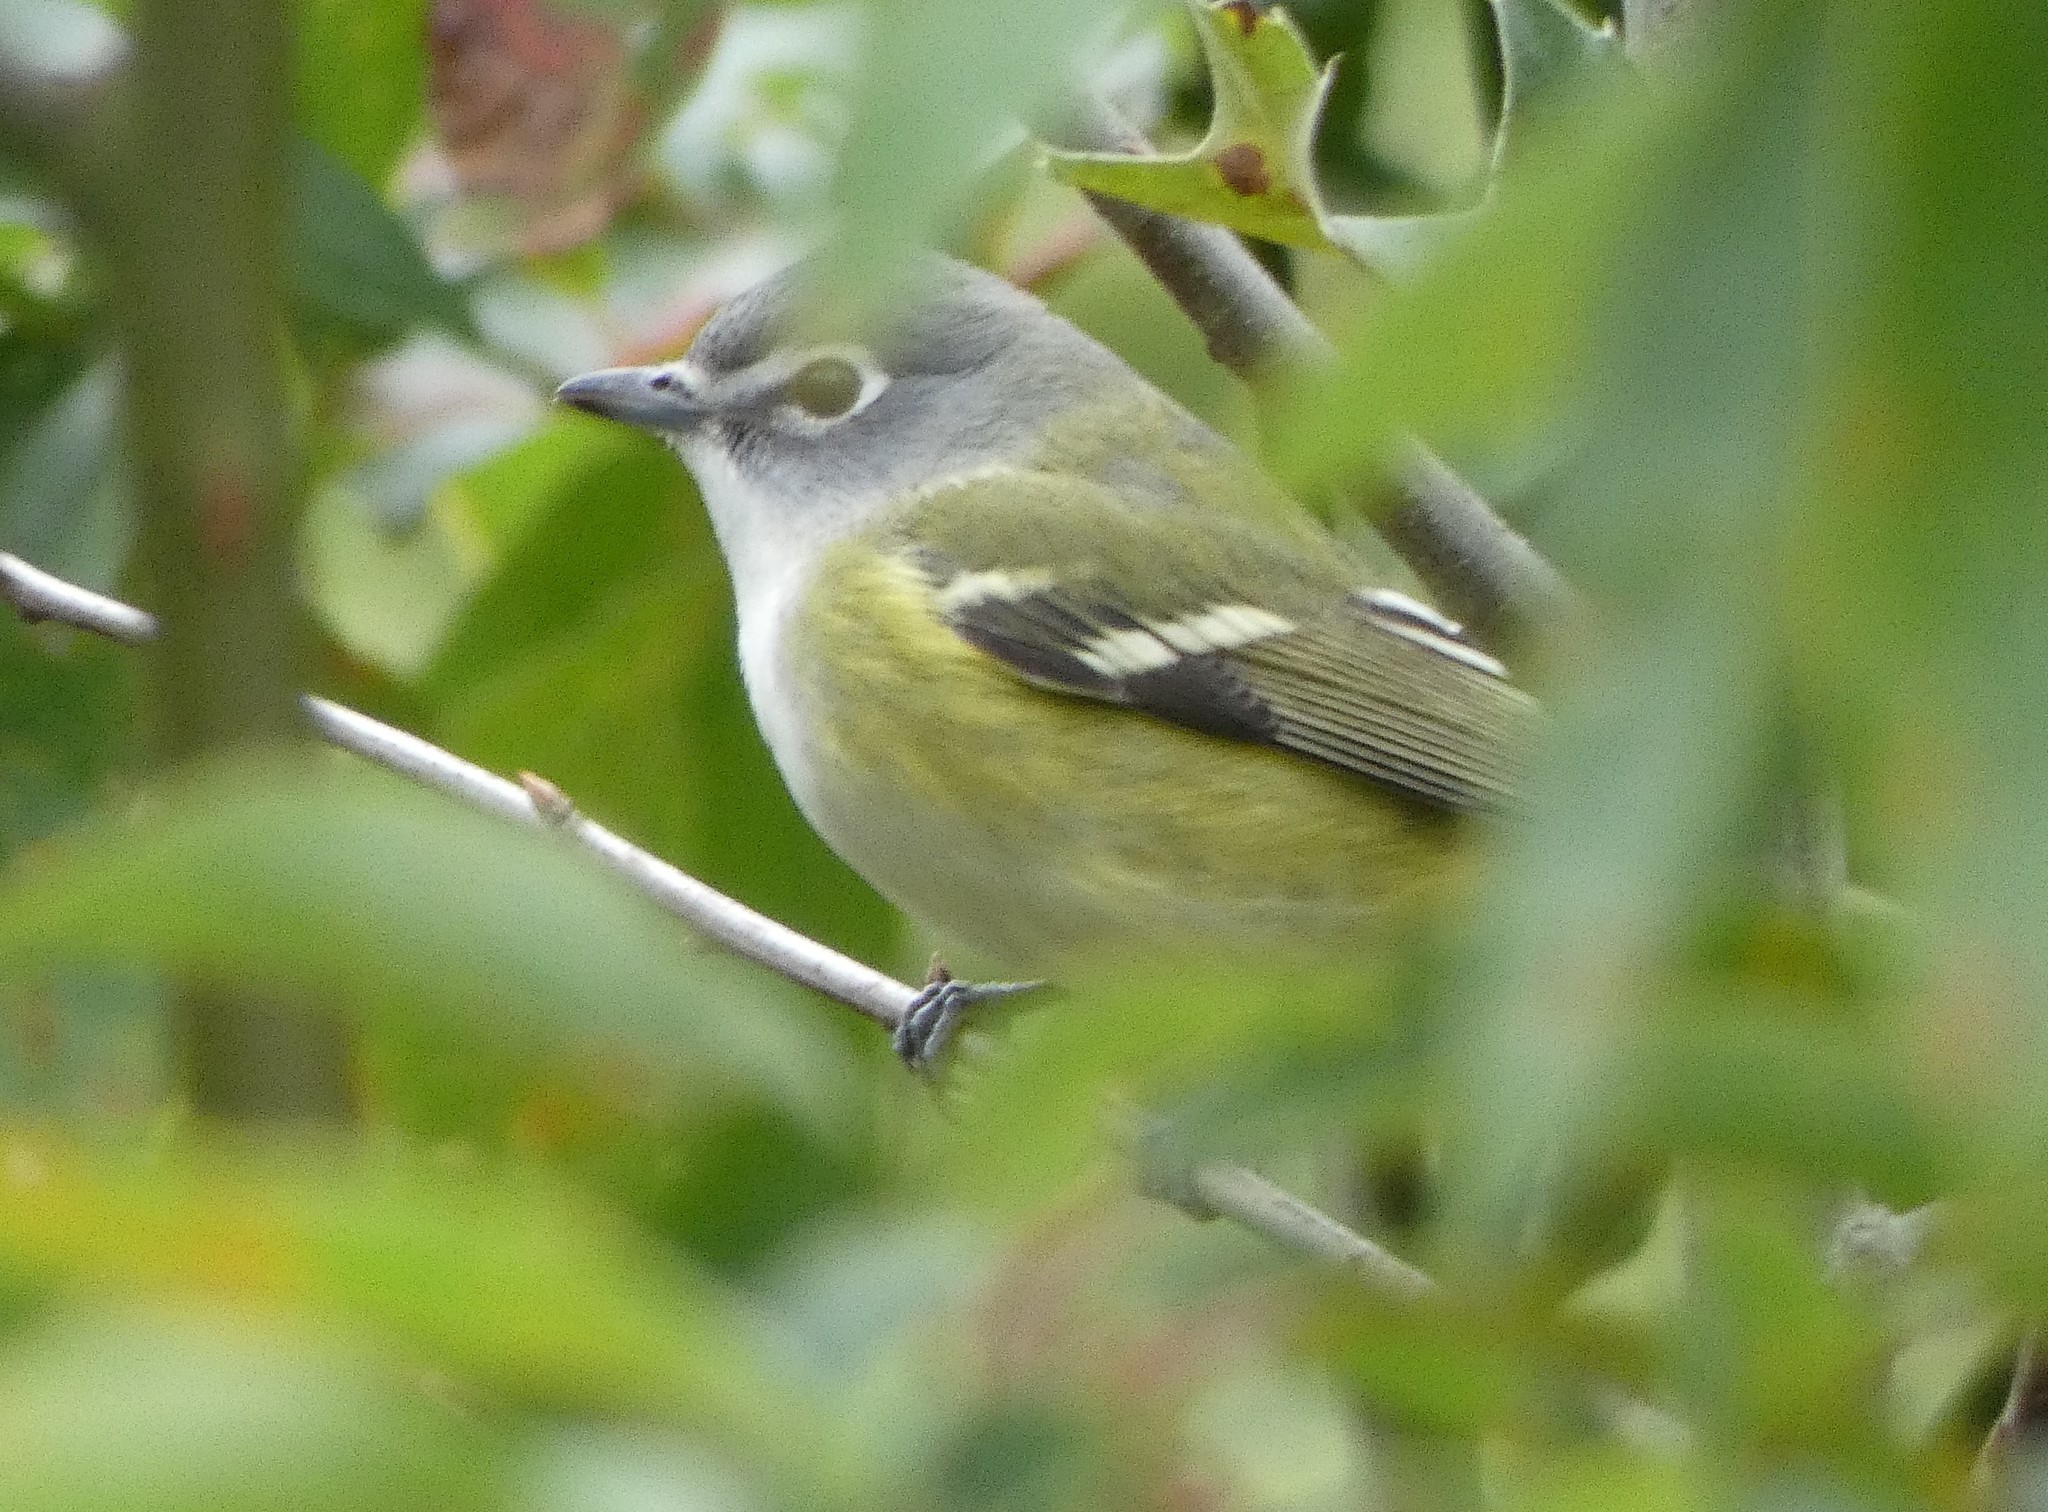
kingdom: Animalia
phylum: Chordata
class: Aves
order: Passeriformes
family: Vireonidae
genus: Vireo
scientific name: Vireo solitarius
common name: Blue-headed vireo
